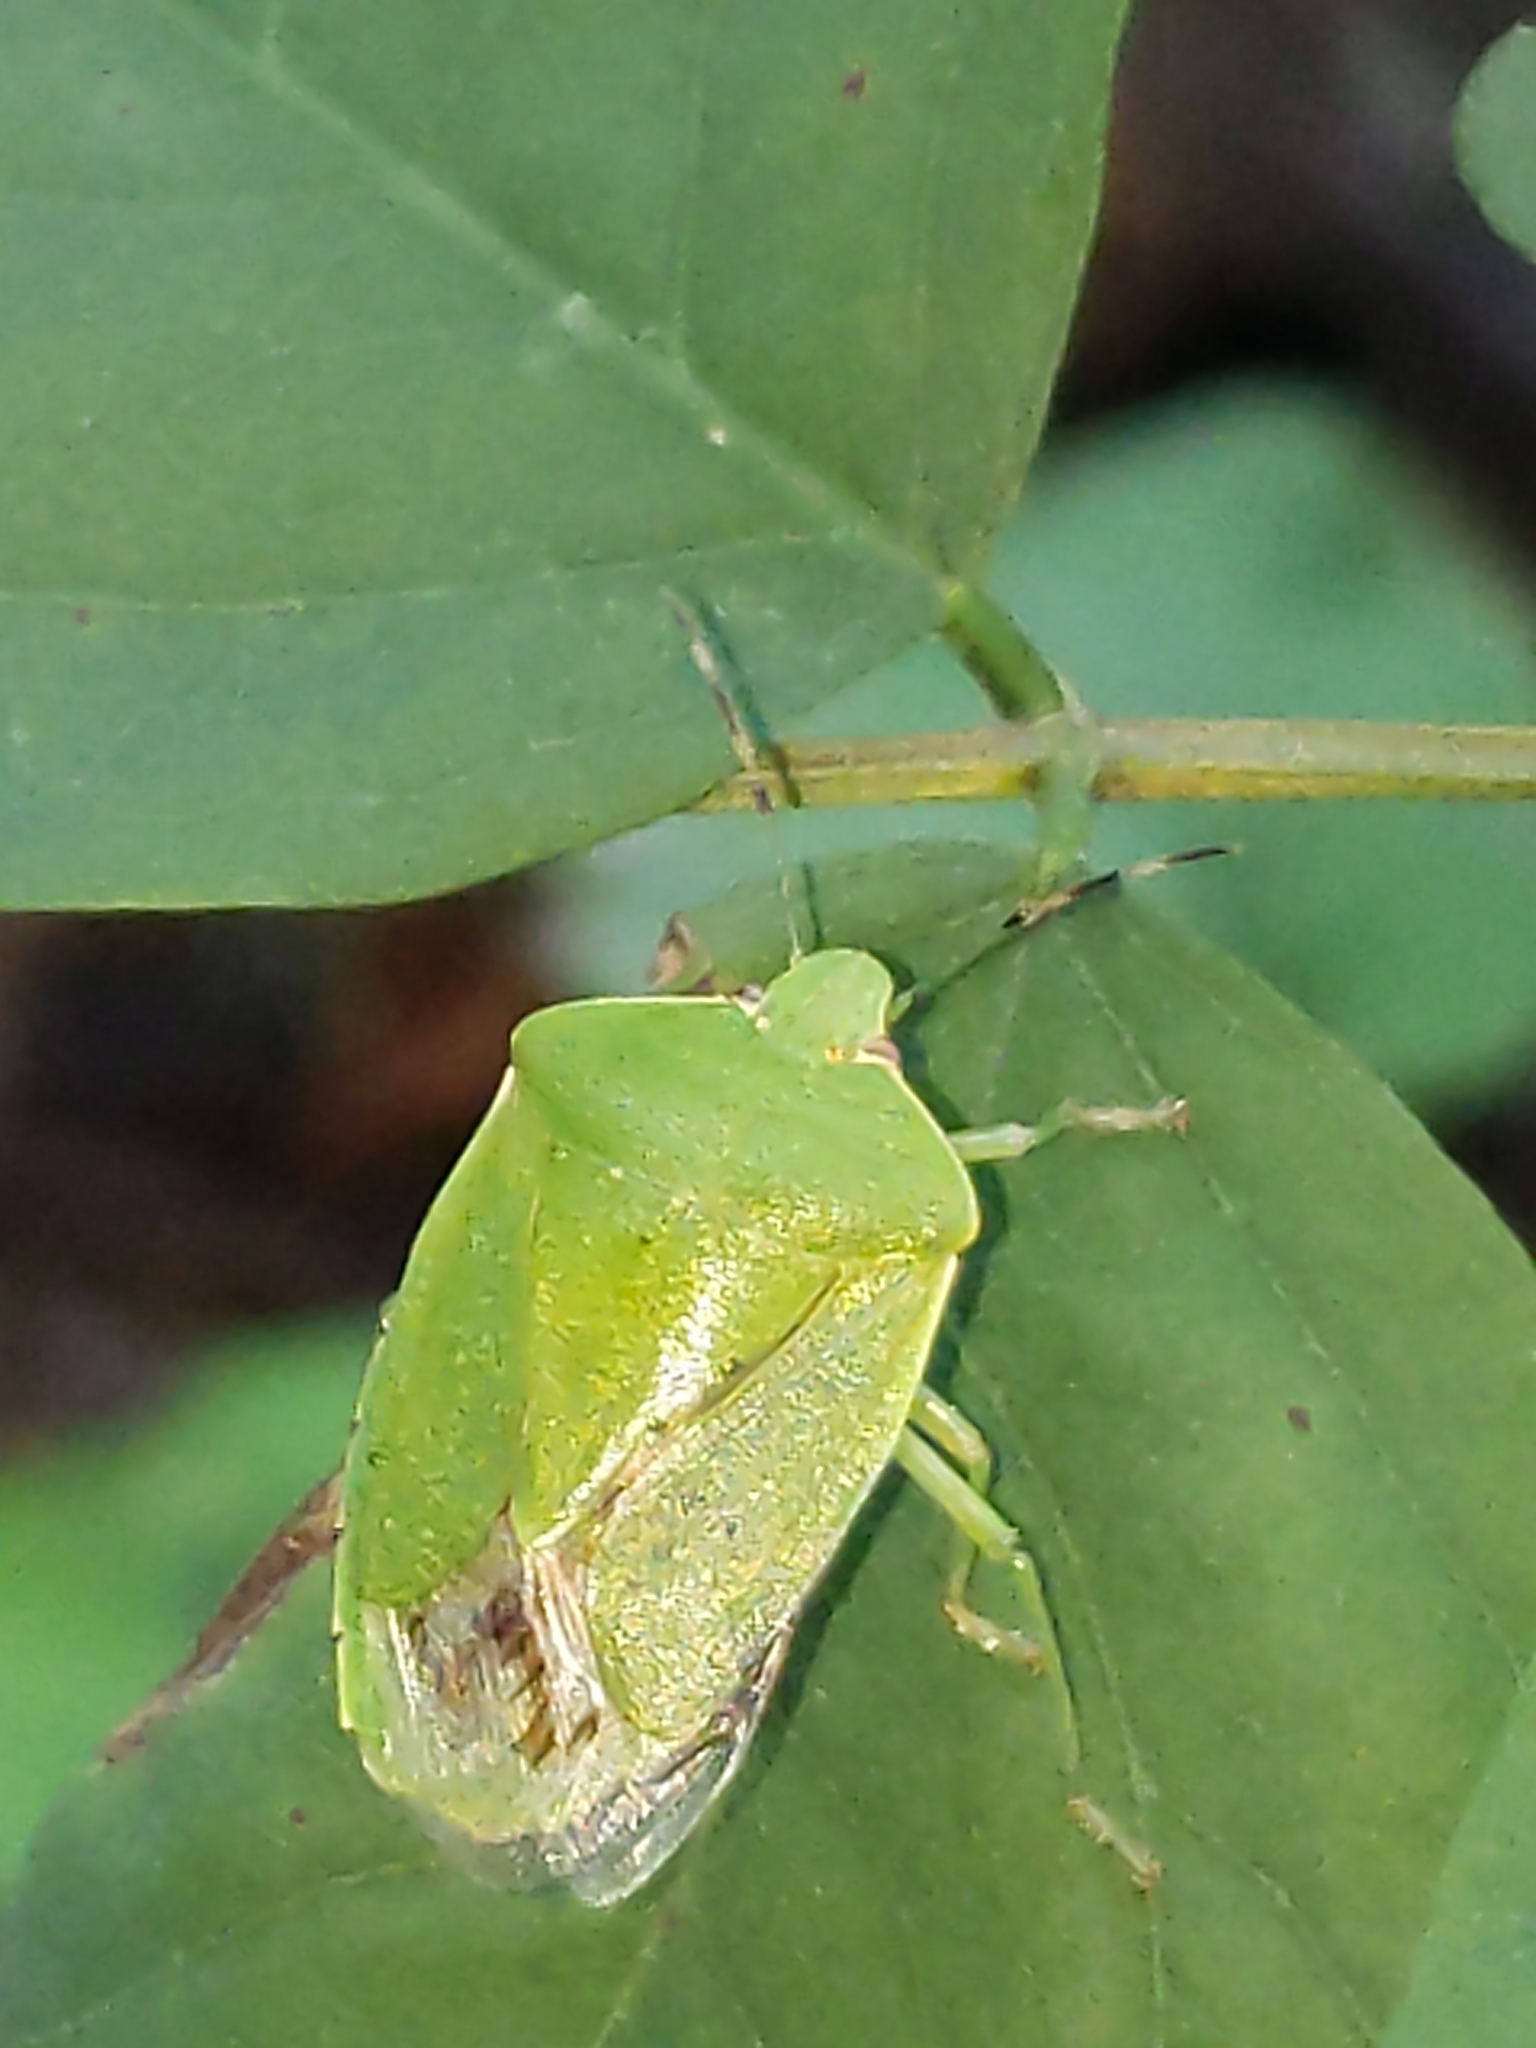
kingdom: Animalia
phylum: Arthropoda
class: Insecta
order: Hemiptera
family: Pentatomidae
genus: Chinavia
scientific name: Chinavia hilaris
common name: Green stink bug
